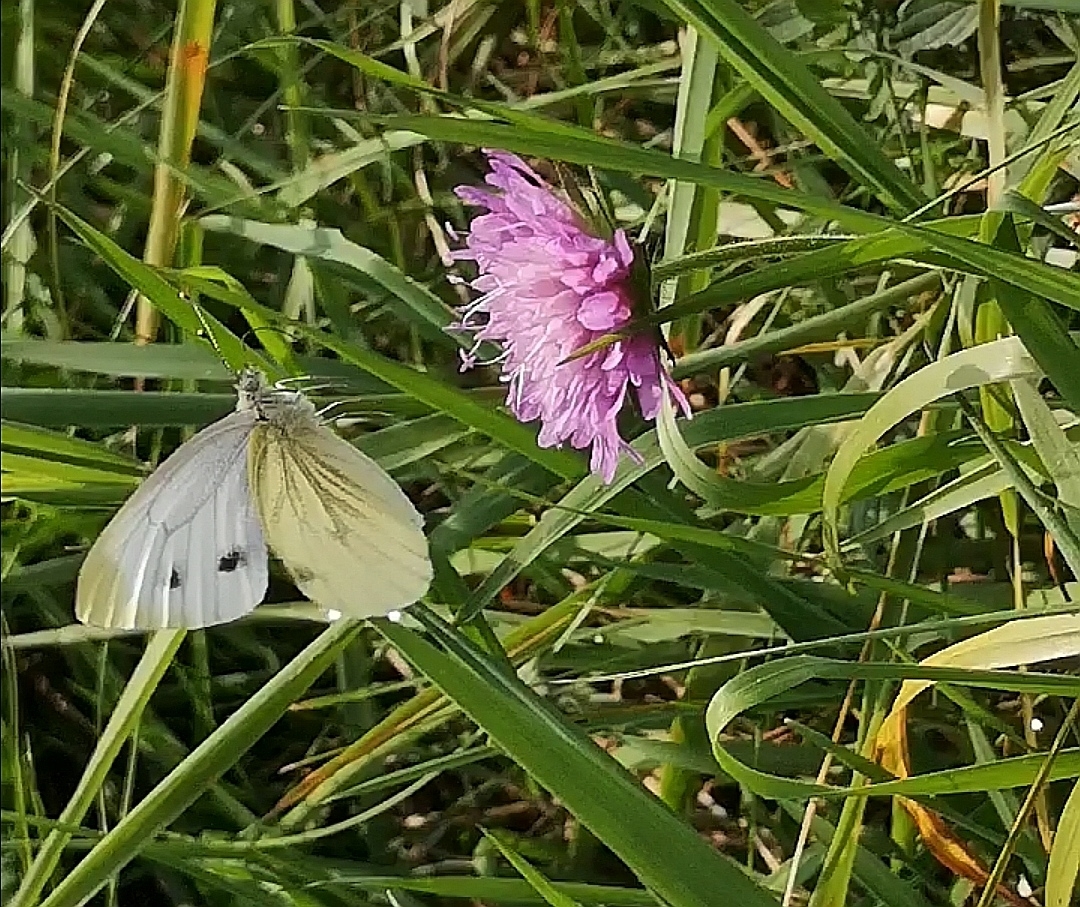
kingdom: Animalia
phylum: Arthropoda
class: Insecta
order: Lepidoptera
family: Pieridae
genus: Pieris
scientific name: Pieris napi
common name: Green-veined white
